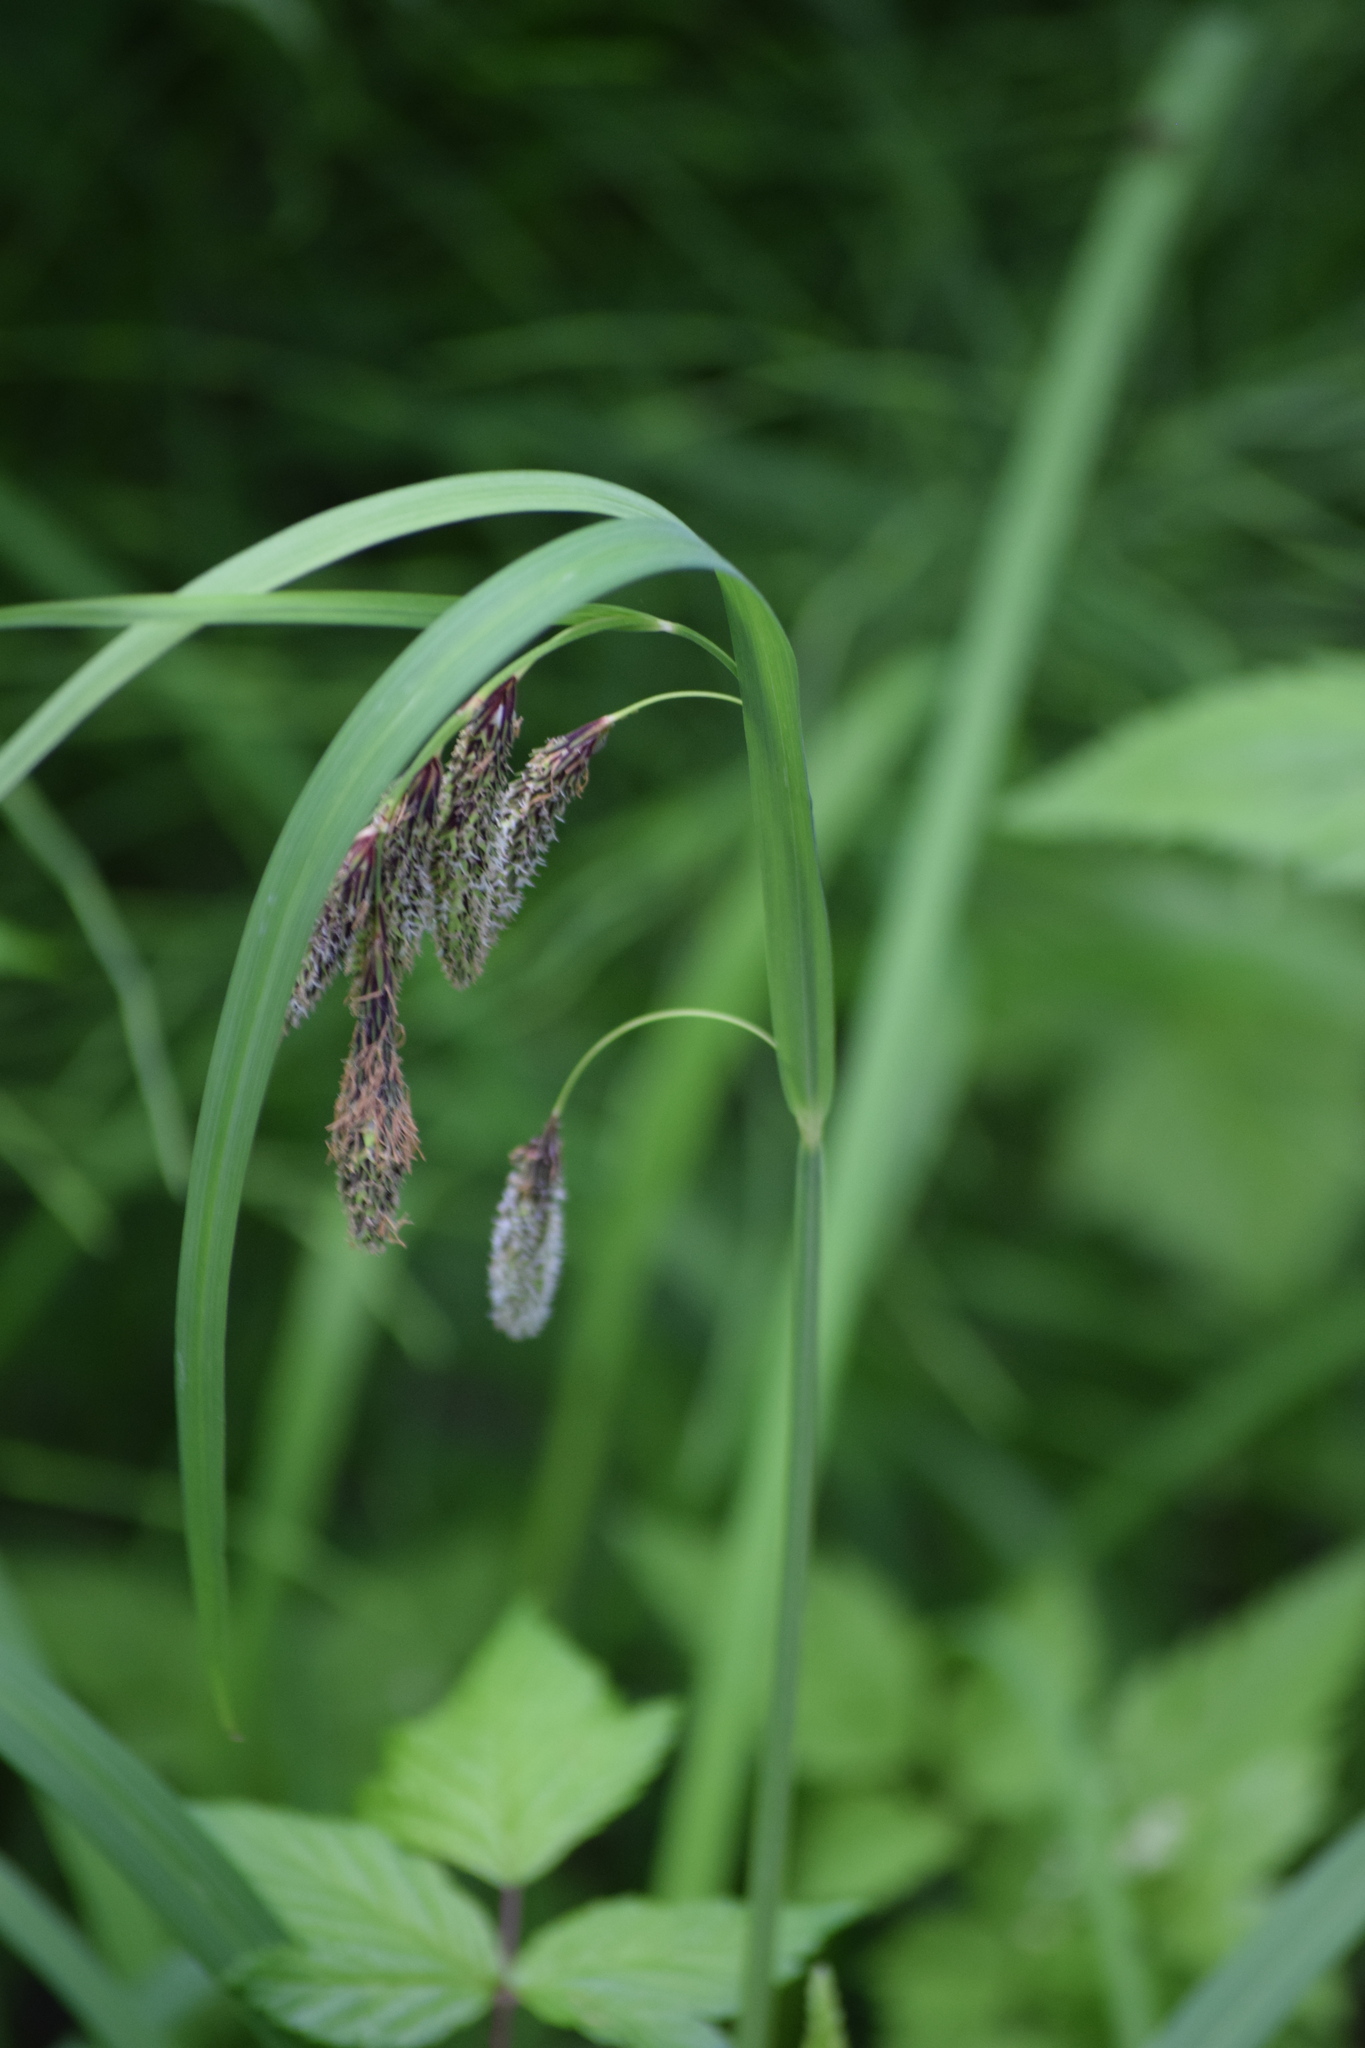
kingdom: Plantae
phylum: Tracheophyta
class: Liliopsida
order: Poales
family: Cyperaceae
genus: Carex
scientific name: Carex mertensii
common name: Mertens' sedge
